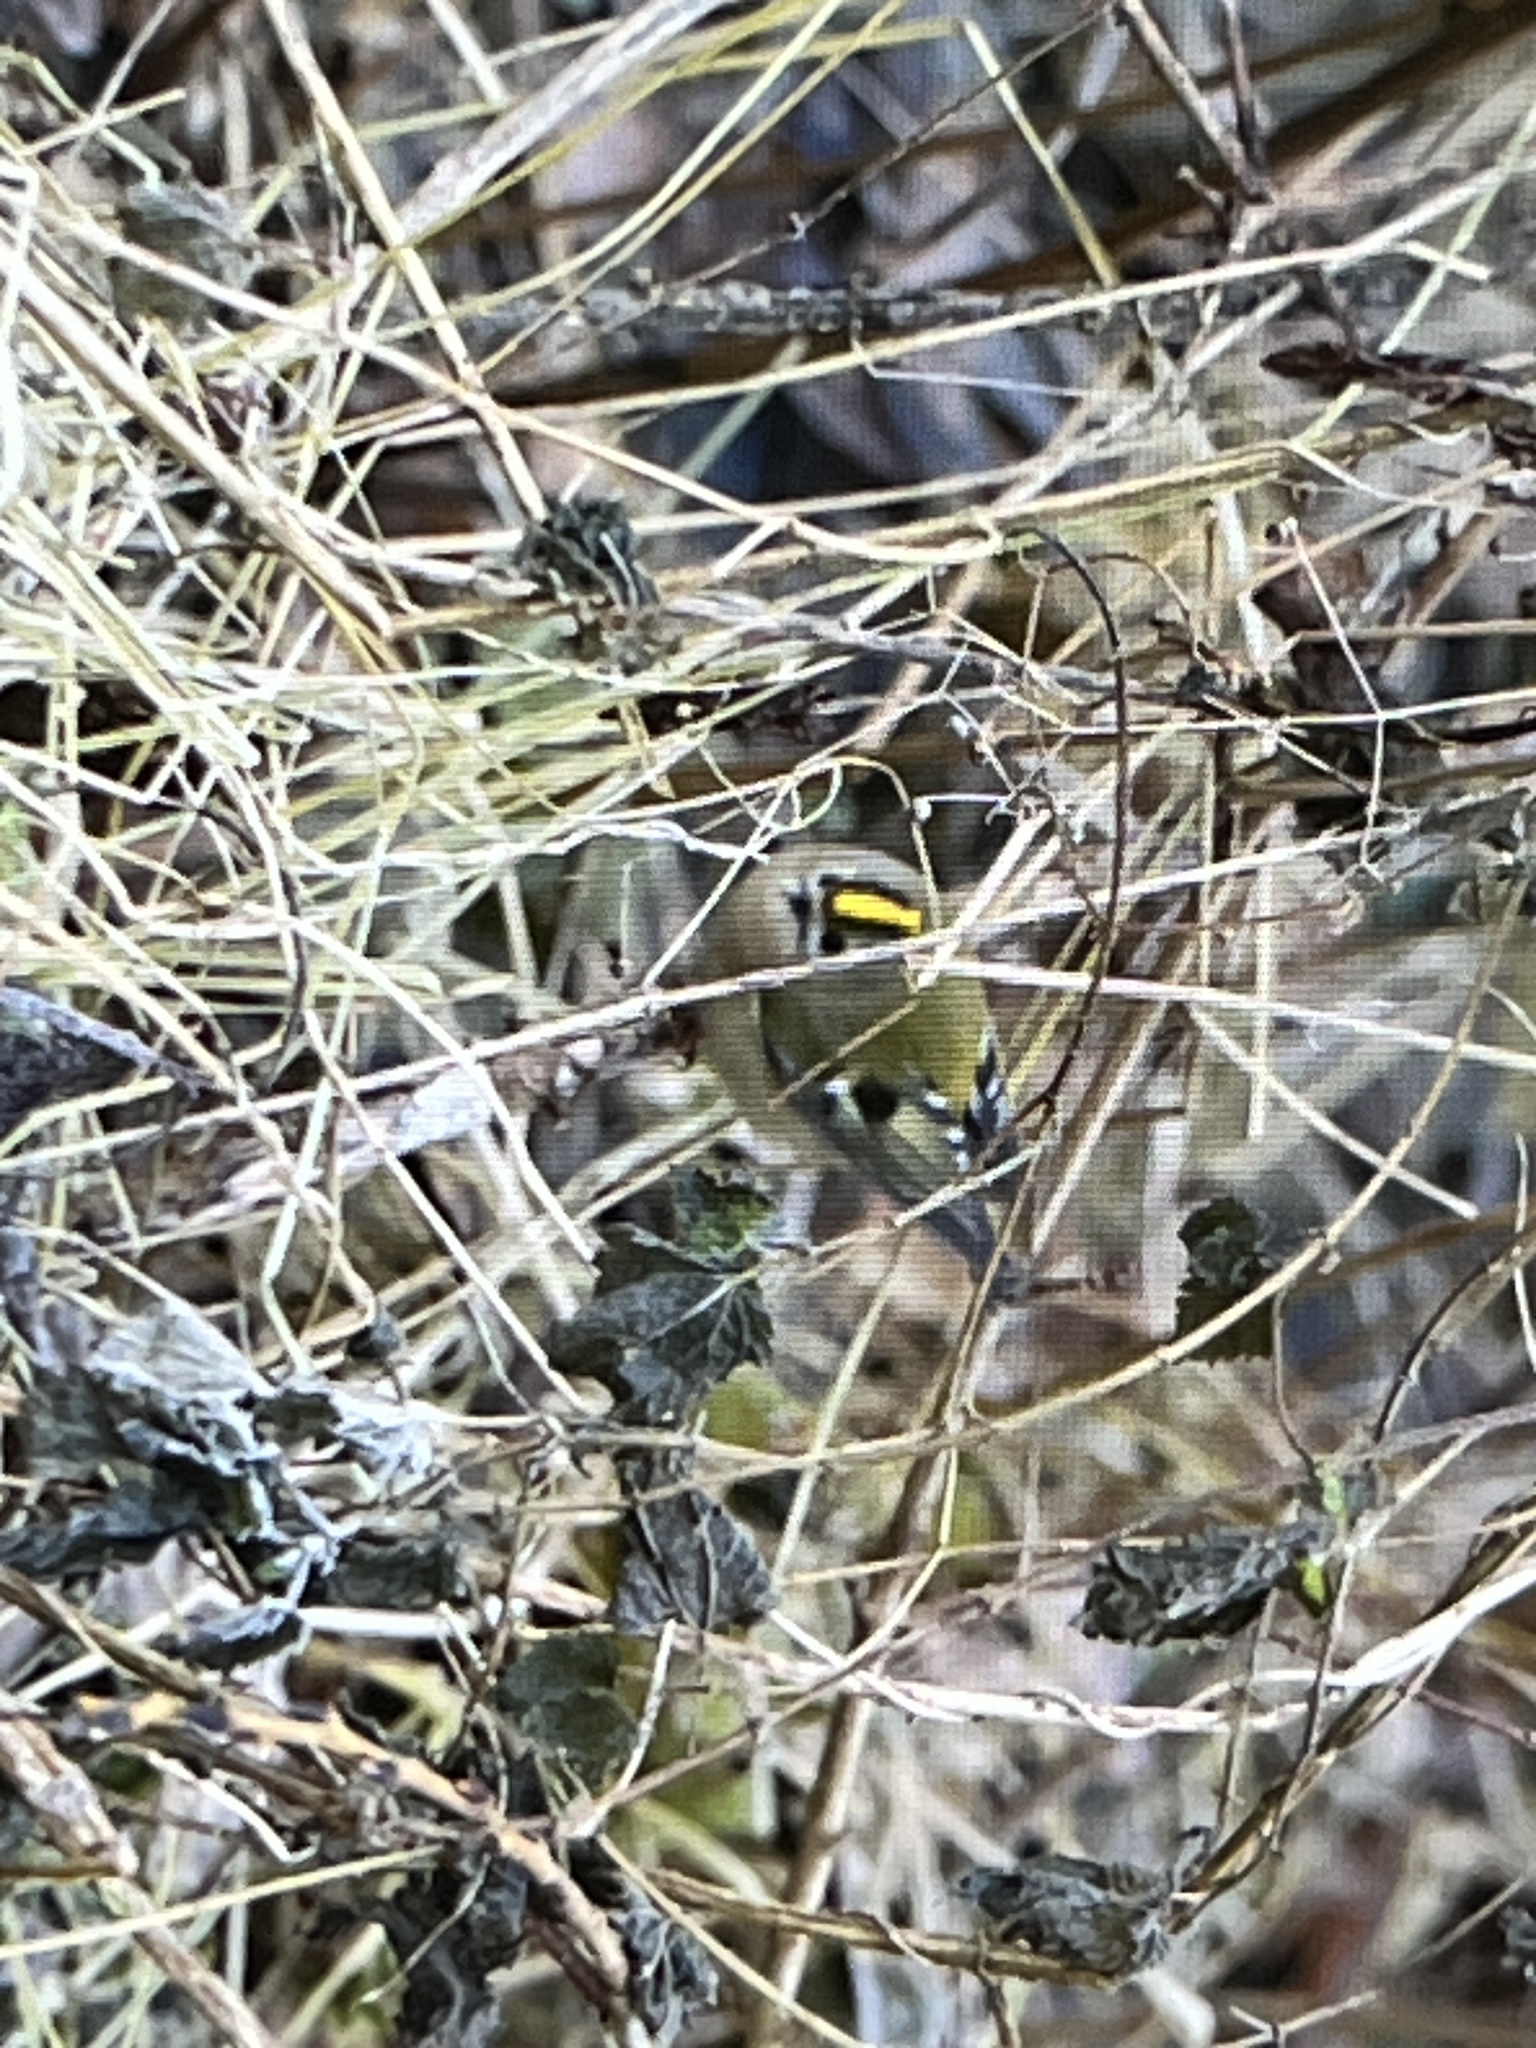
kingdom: Animalia
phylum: Chordata
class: Aves
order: Passeriformes
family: Regulidae
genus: Regulus
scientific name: Regulus regulus
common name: Goldcrest
